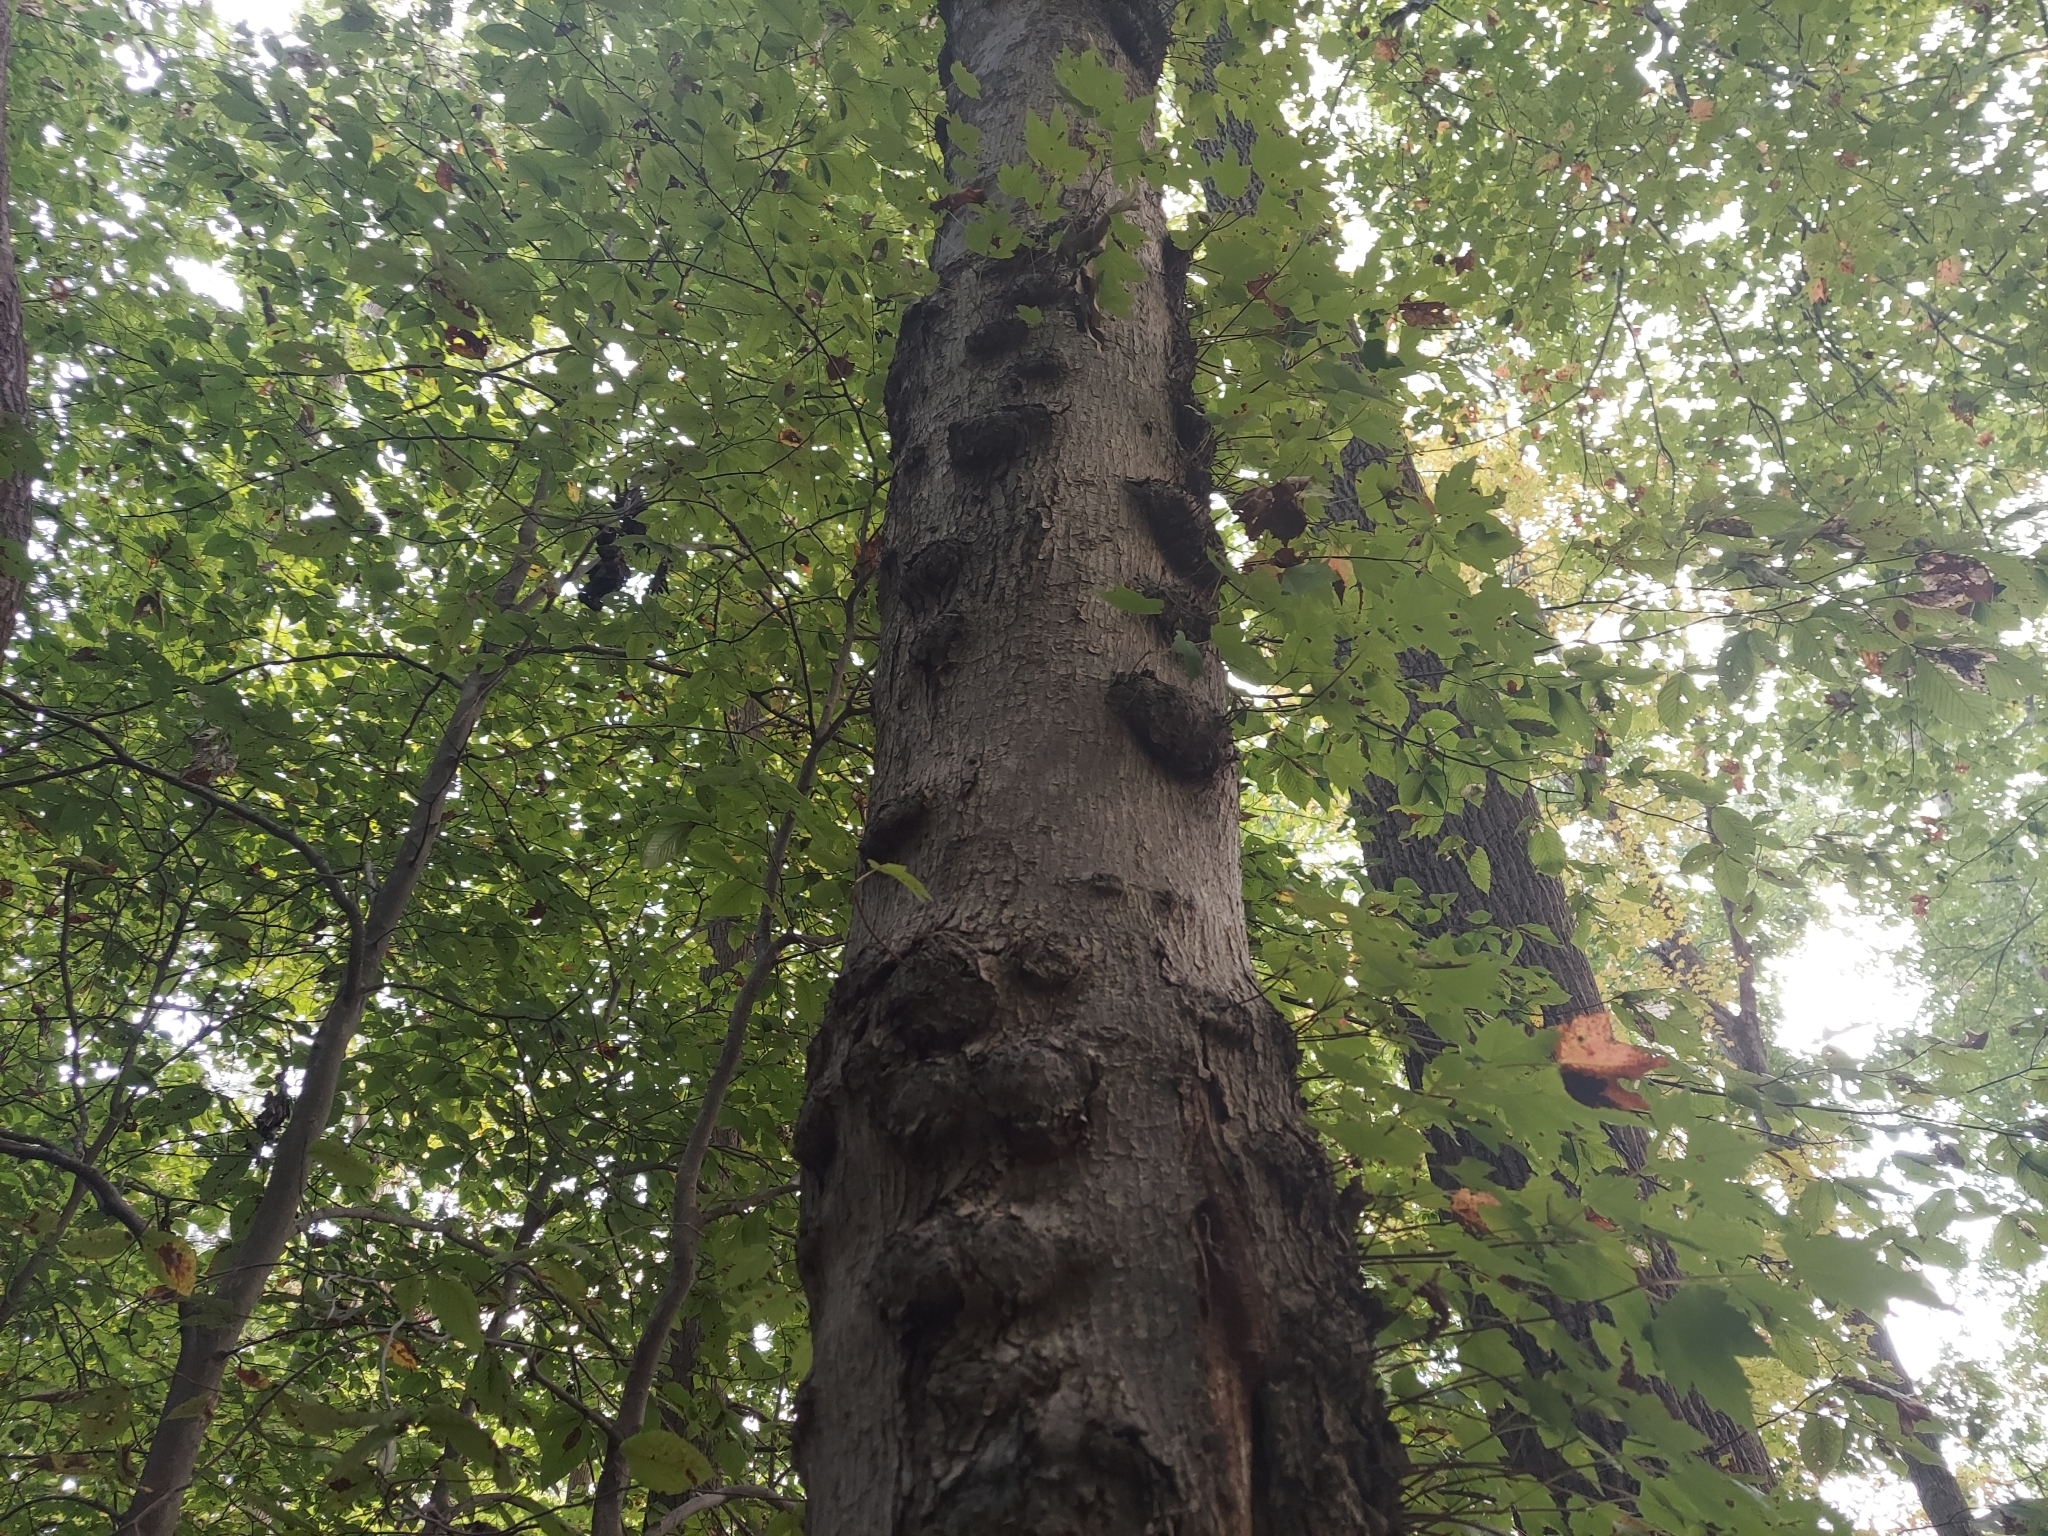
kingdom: Bacteria
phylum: Proteobacteria
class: Alphaproteobacteria
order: Rhizobiales
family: Rhizobiaceae
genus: Rhizobium
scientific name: Rhizobium Agrobacterium radiobacter
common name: Bacterial crown gall
